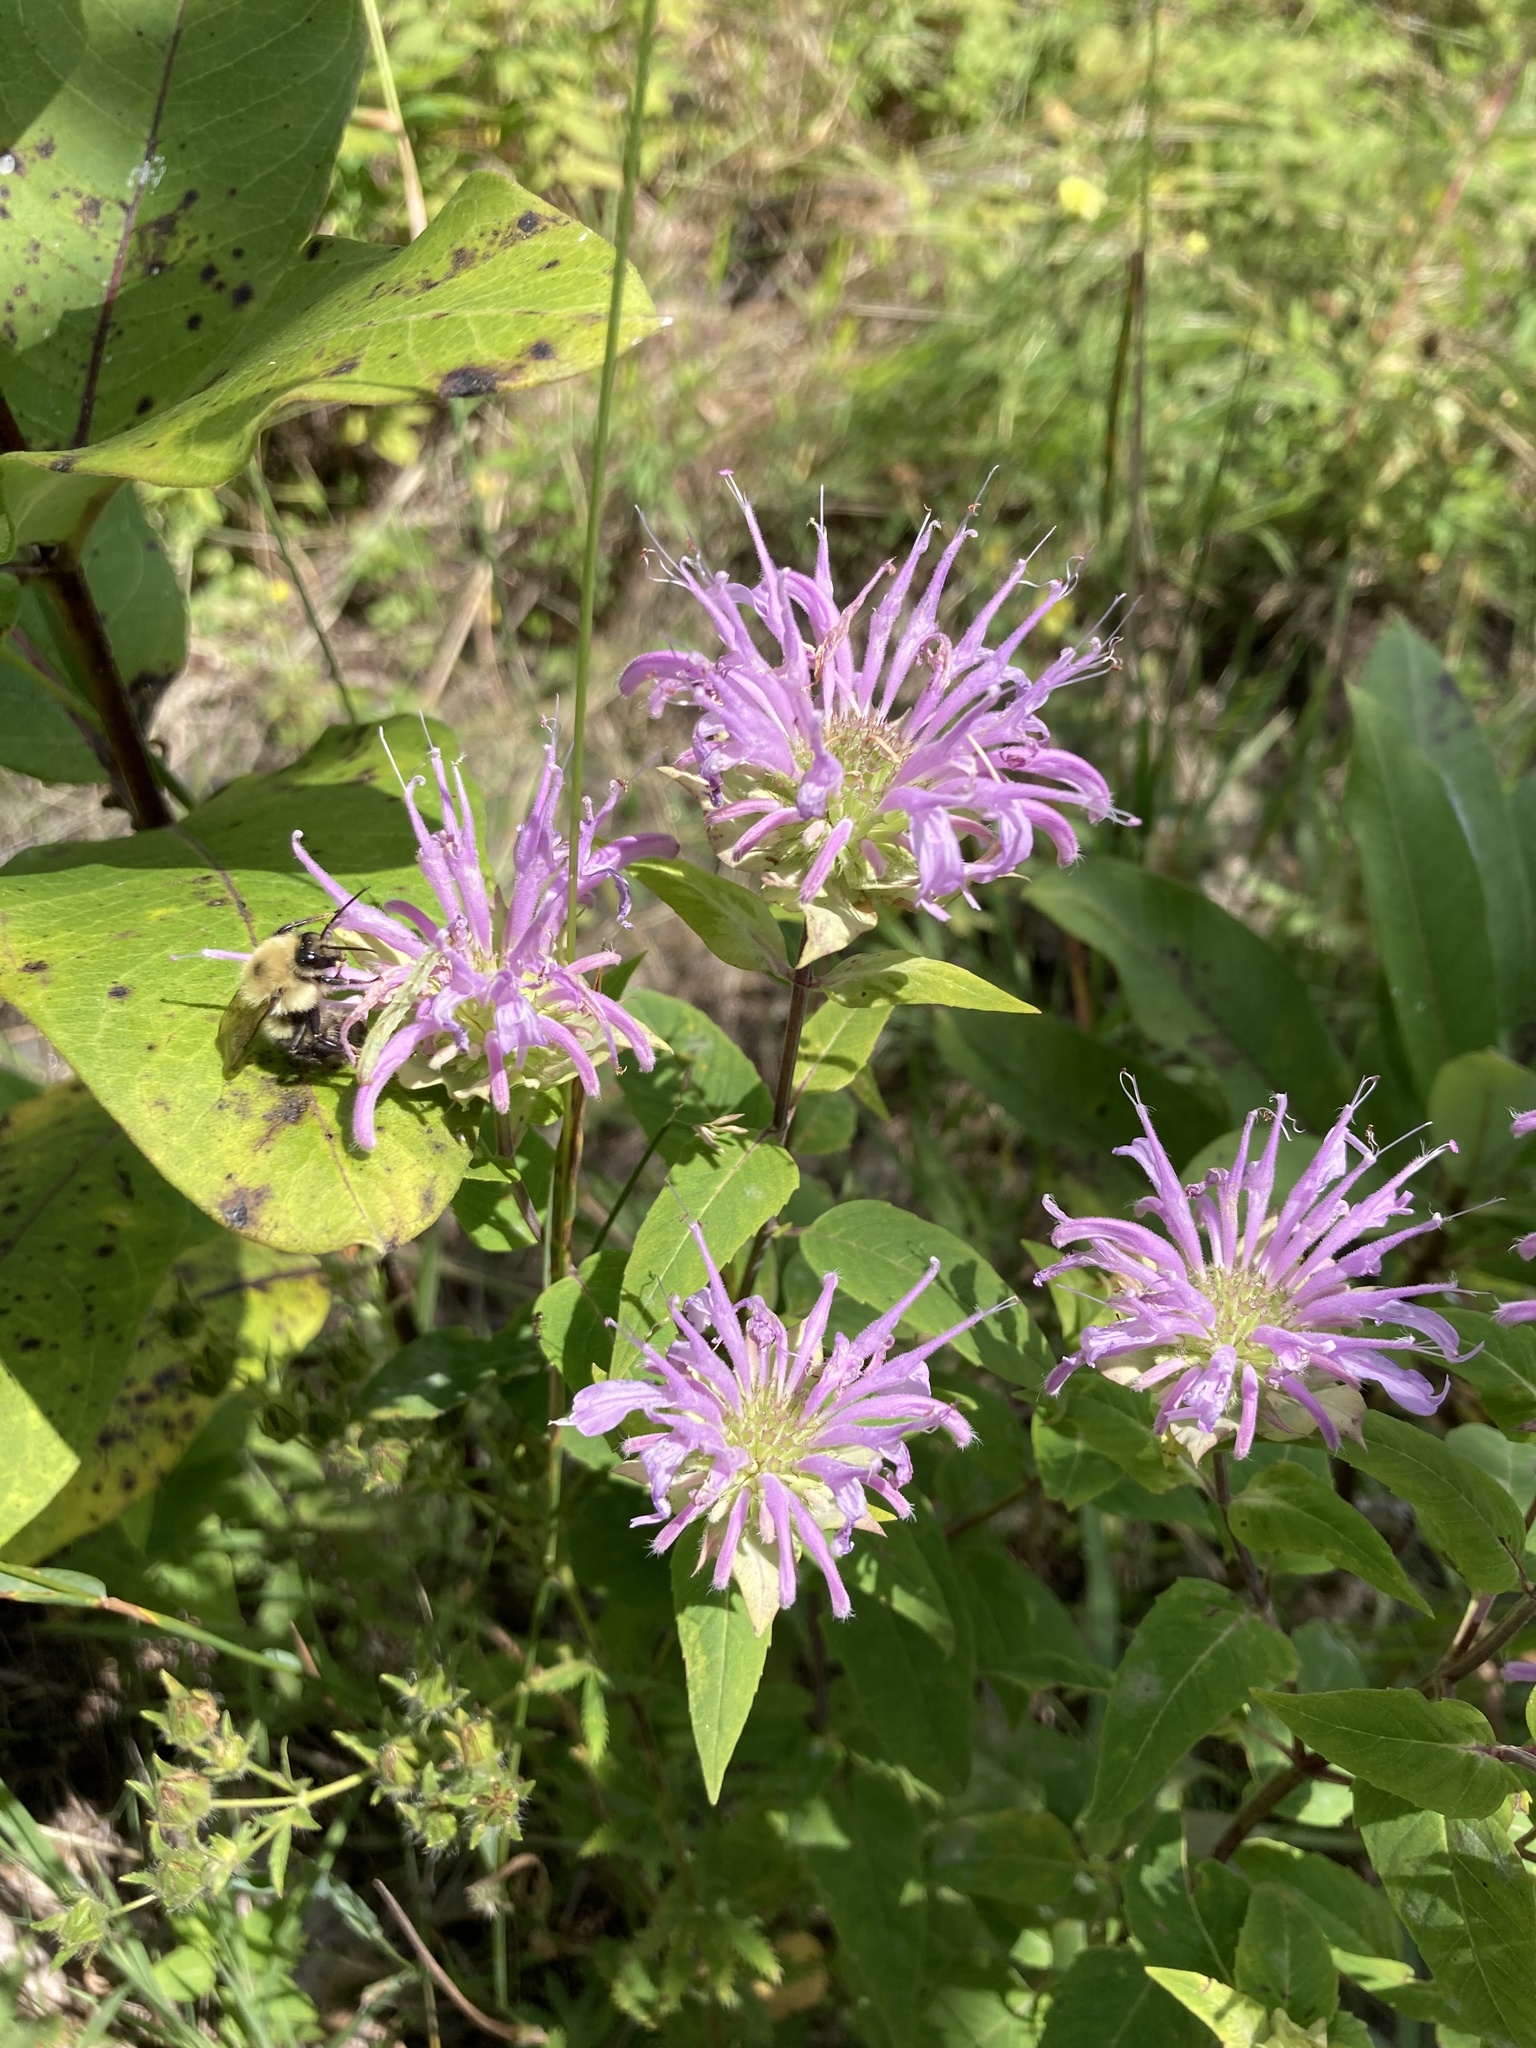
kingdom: Plantae
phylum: Tracheophyta
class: Magnoliopsida
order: Lamiales
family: Lamiaceae
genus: Monarda
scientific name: Monarda fistulosa
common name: Purple beebalm
